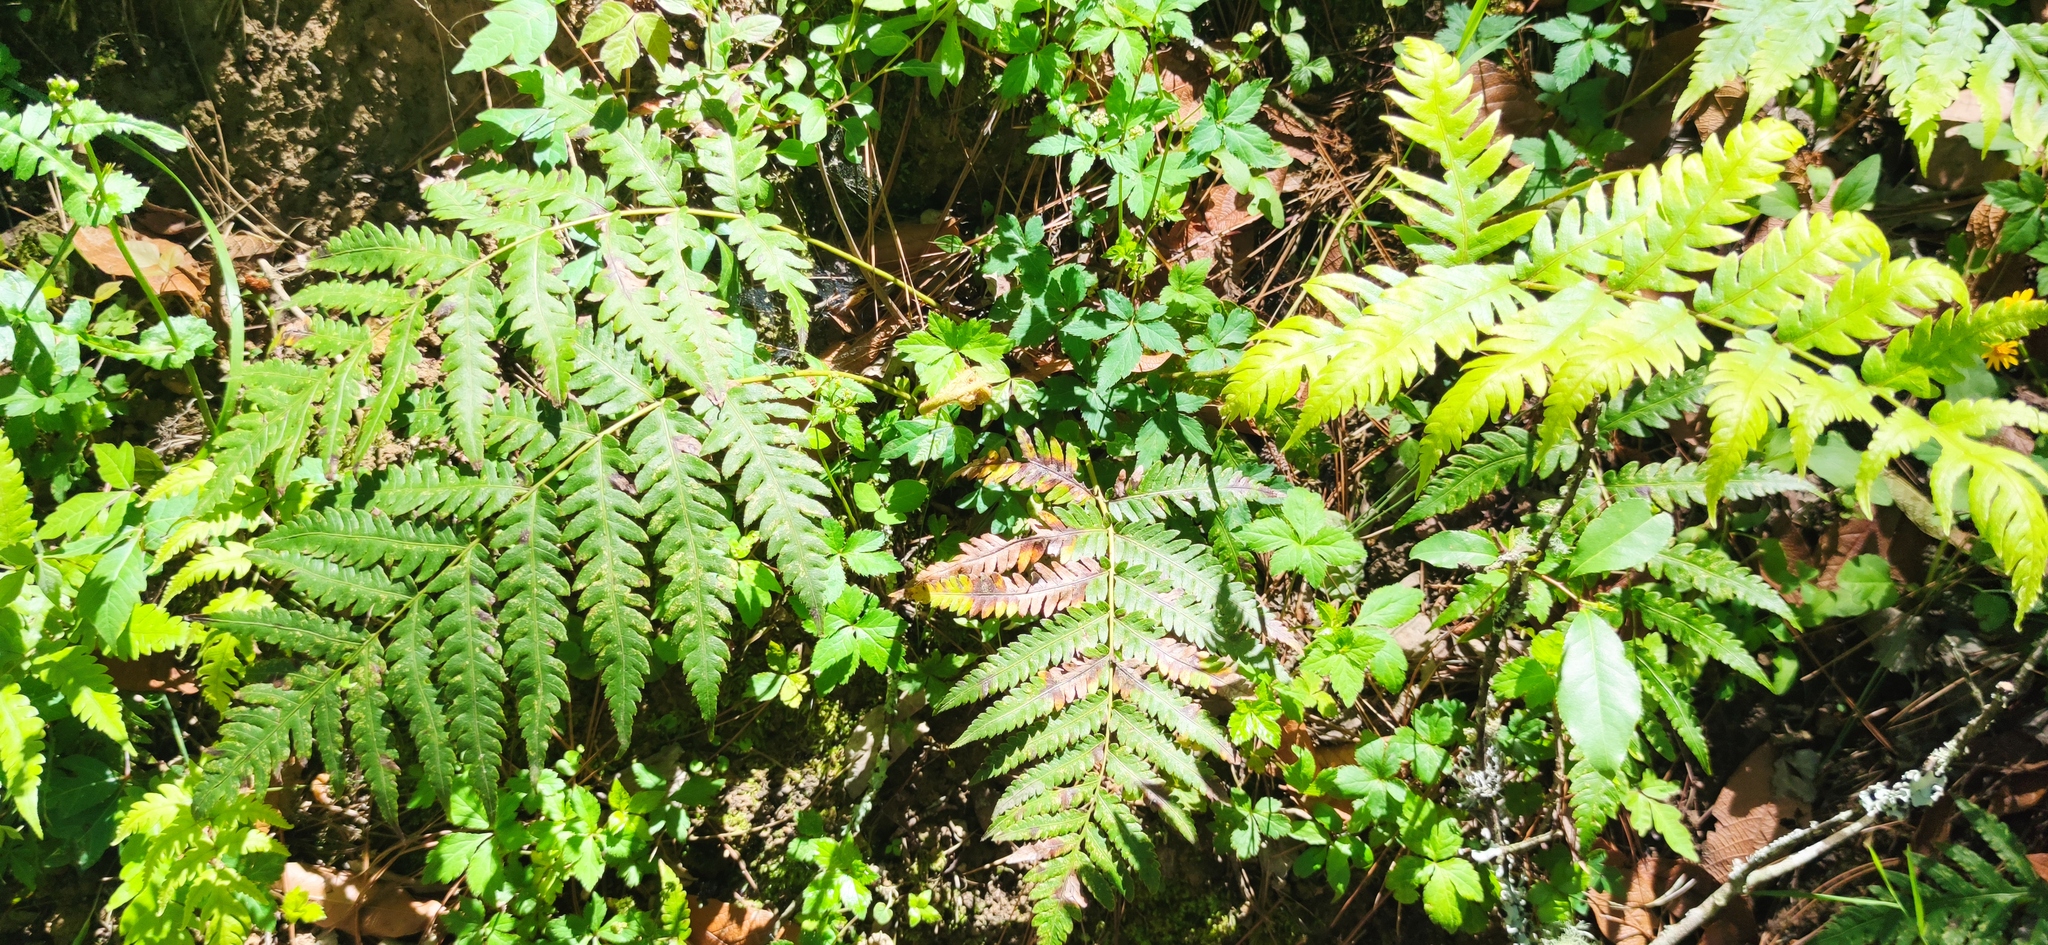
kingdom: Plantae
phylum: Tracheophyta
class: Polypodiopsida
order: Polypodiales
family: Blechnaceae
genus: Woodwardia
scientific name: Woodwardia spinulosa
